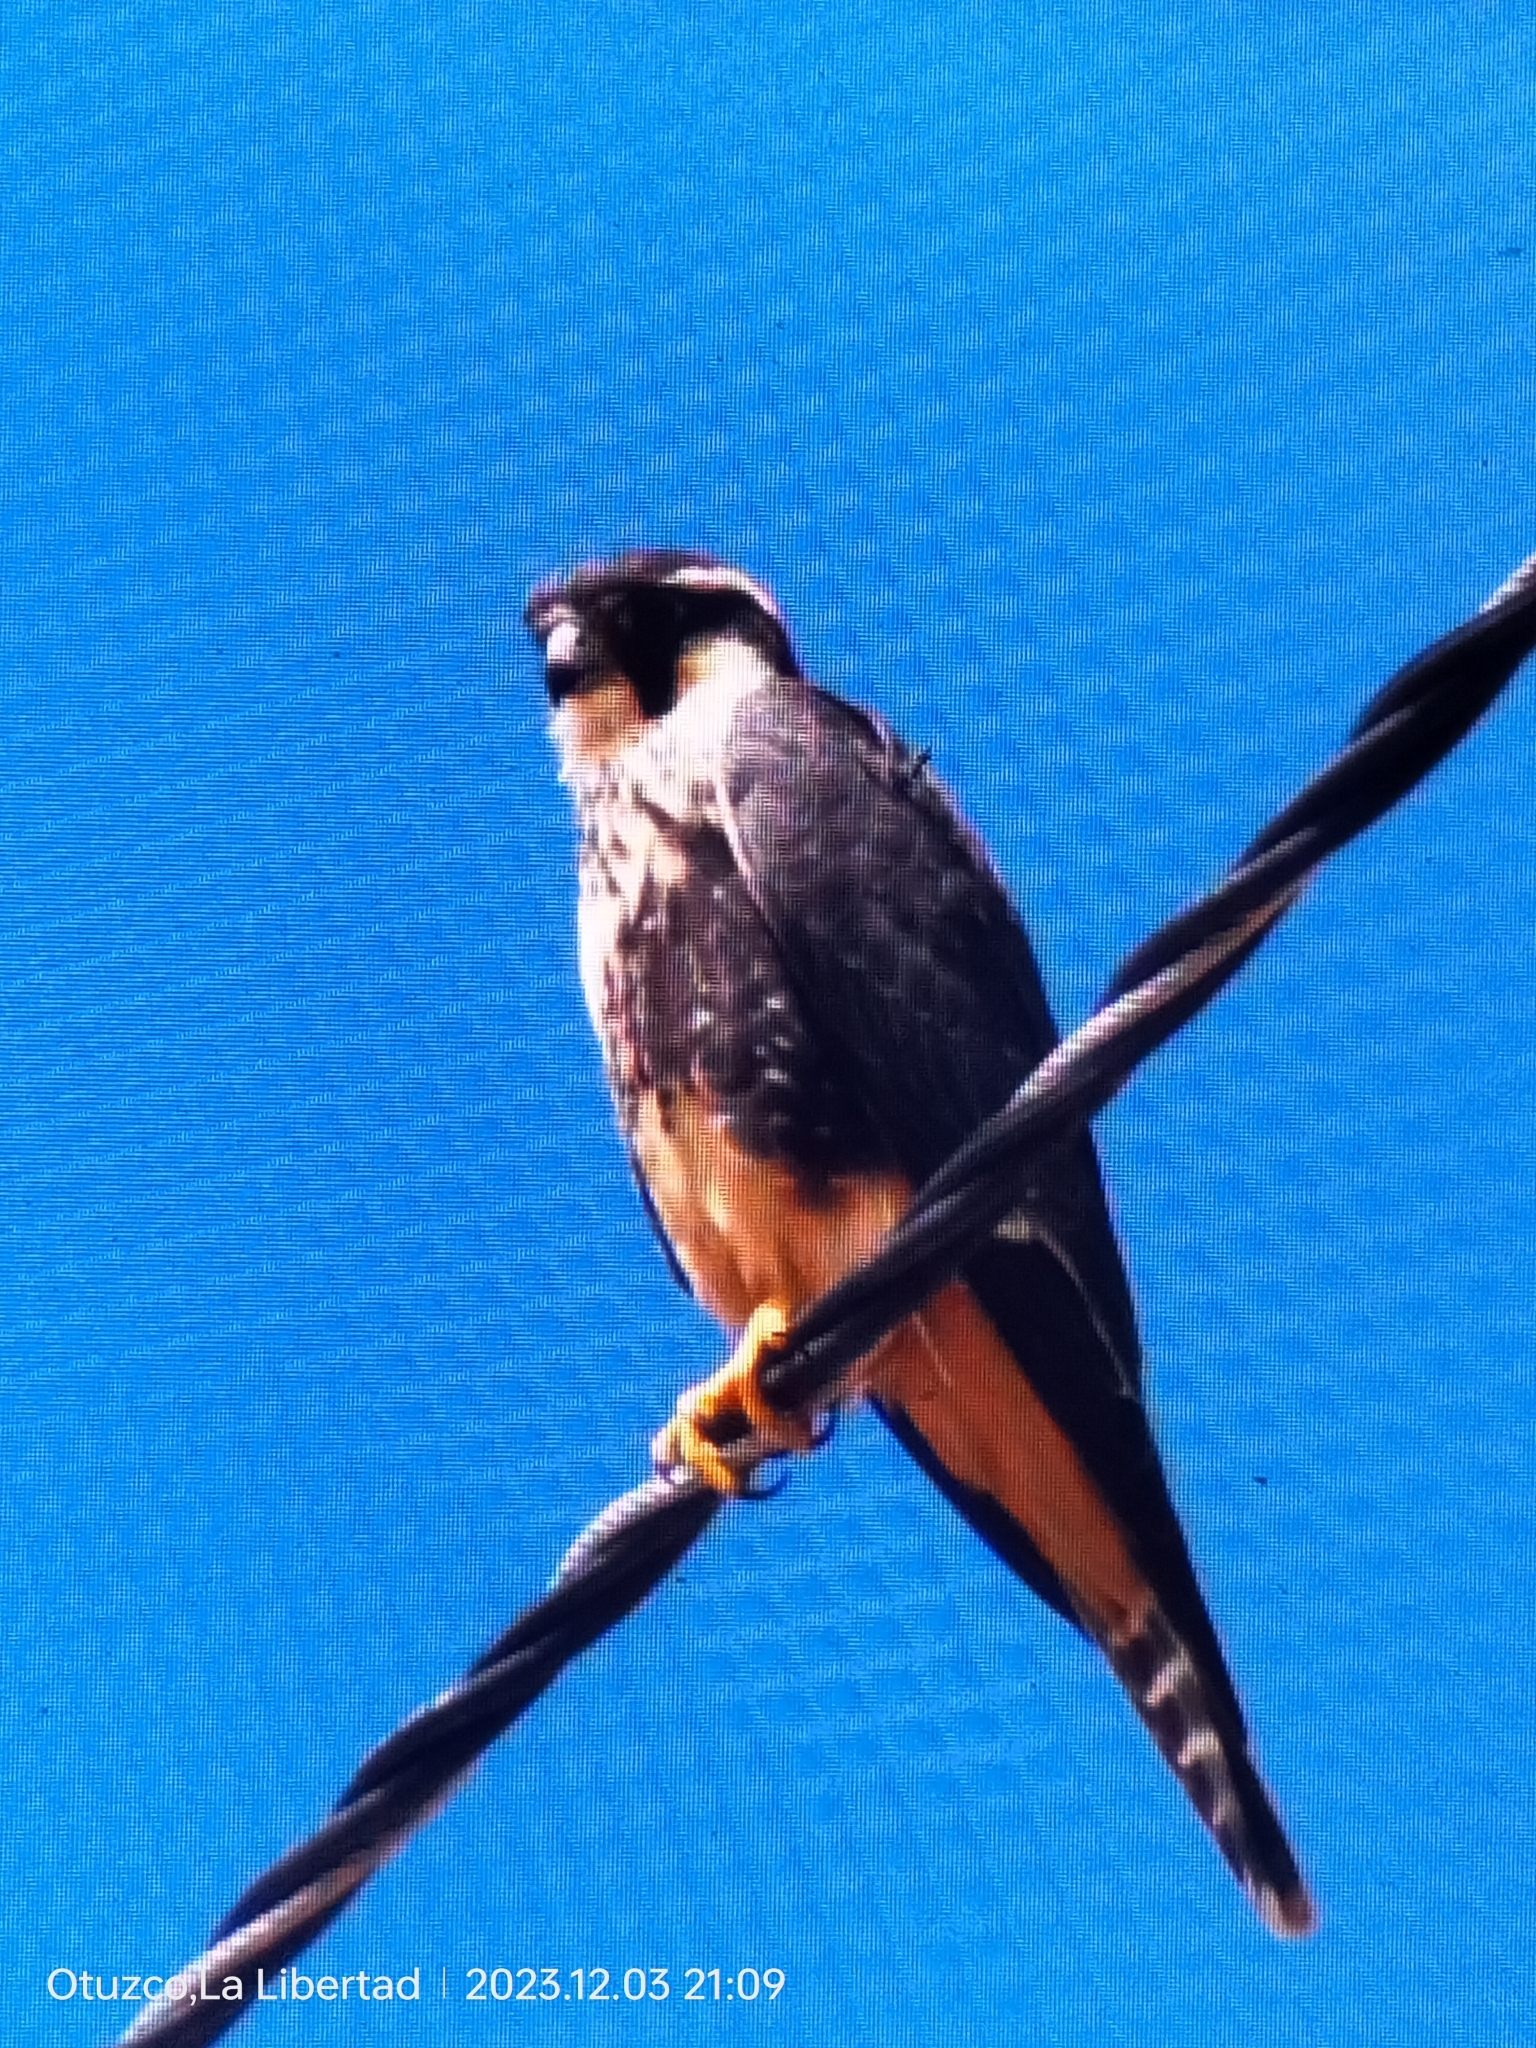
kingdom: Animalia
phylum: Chordata
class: Aves
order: Falconiformes
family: Falconidae
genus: Falco
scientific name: Falco femoralis
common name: Aplomado falcon
